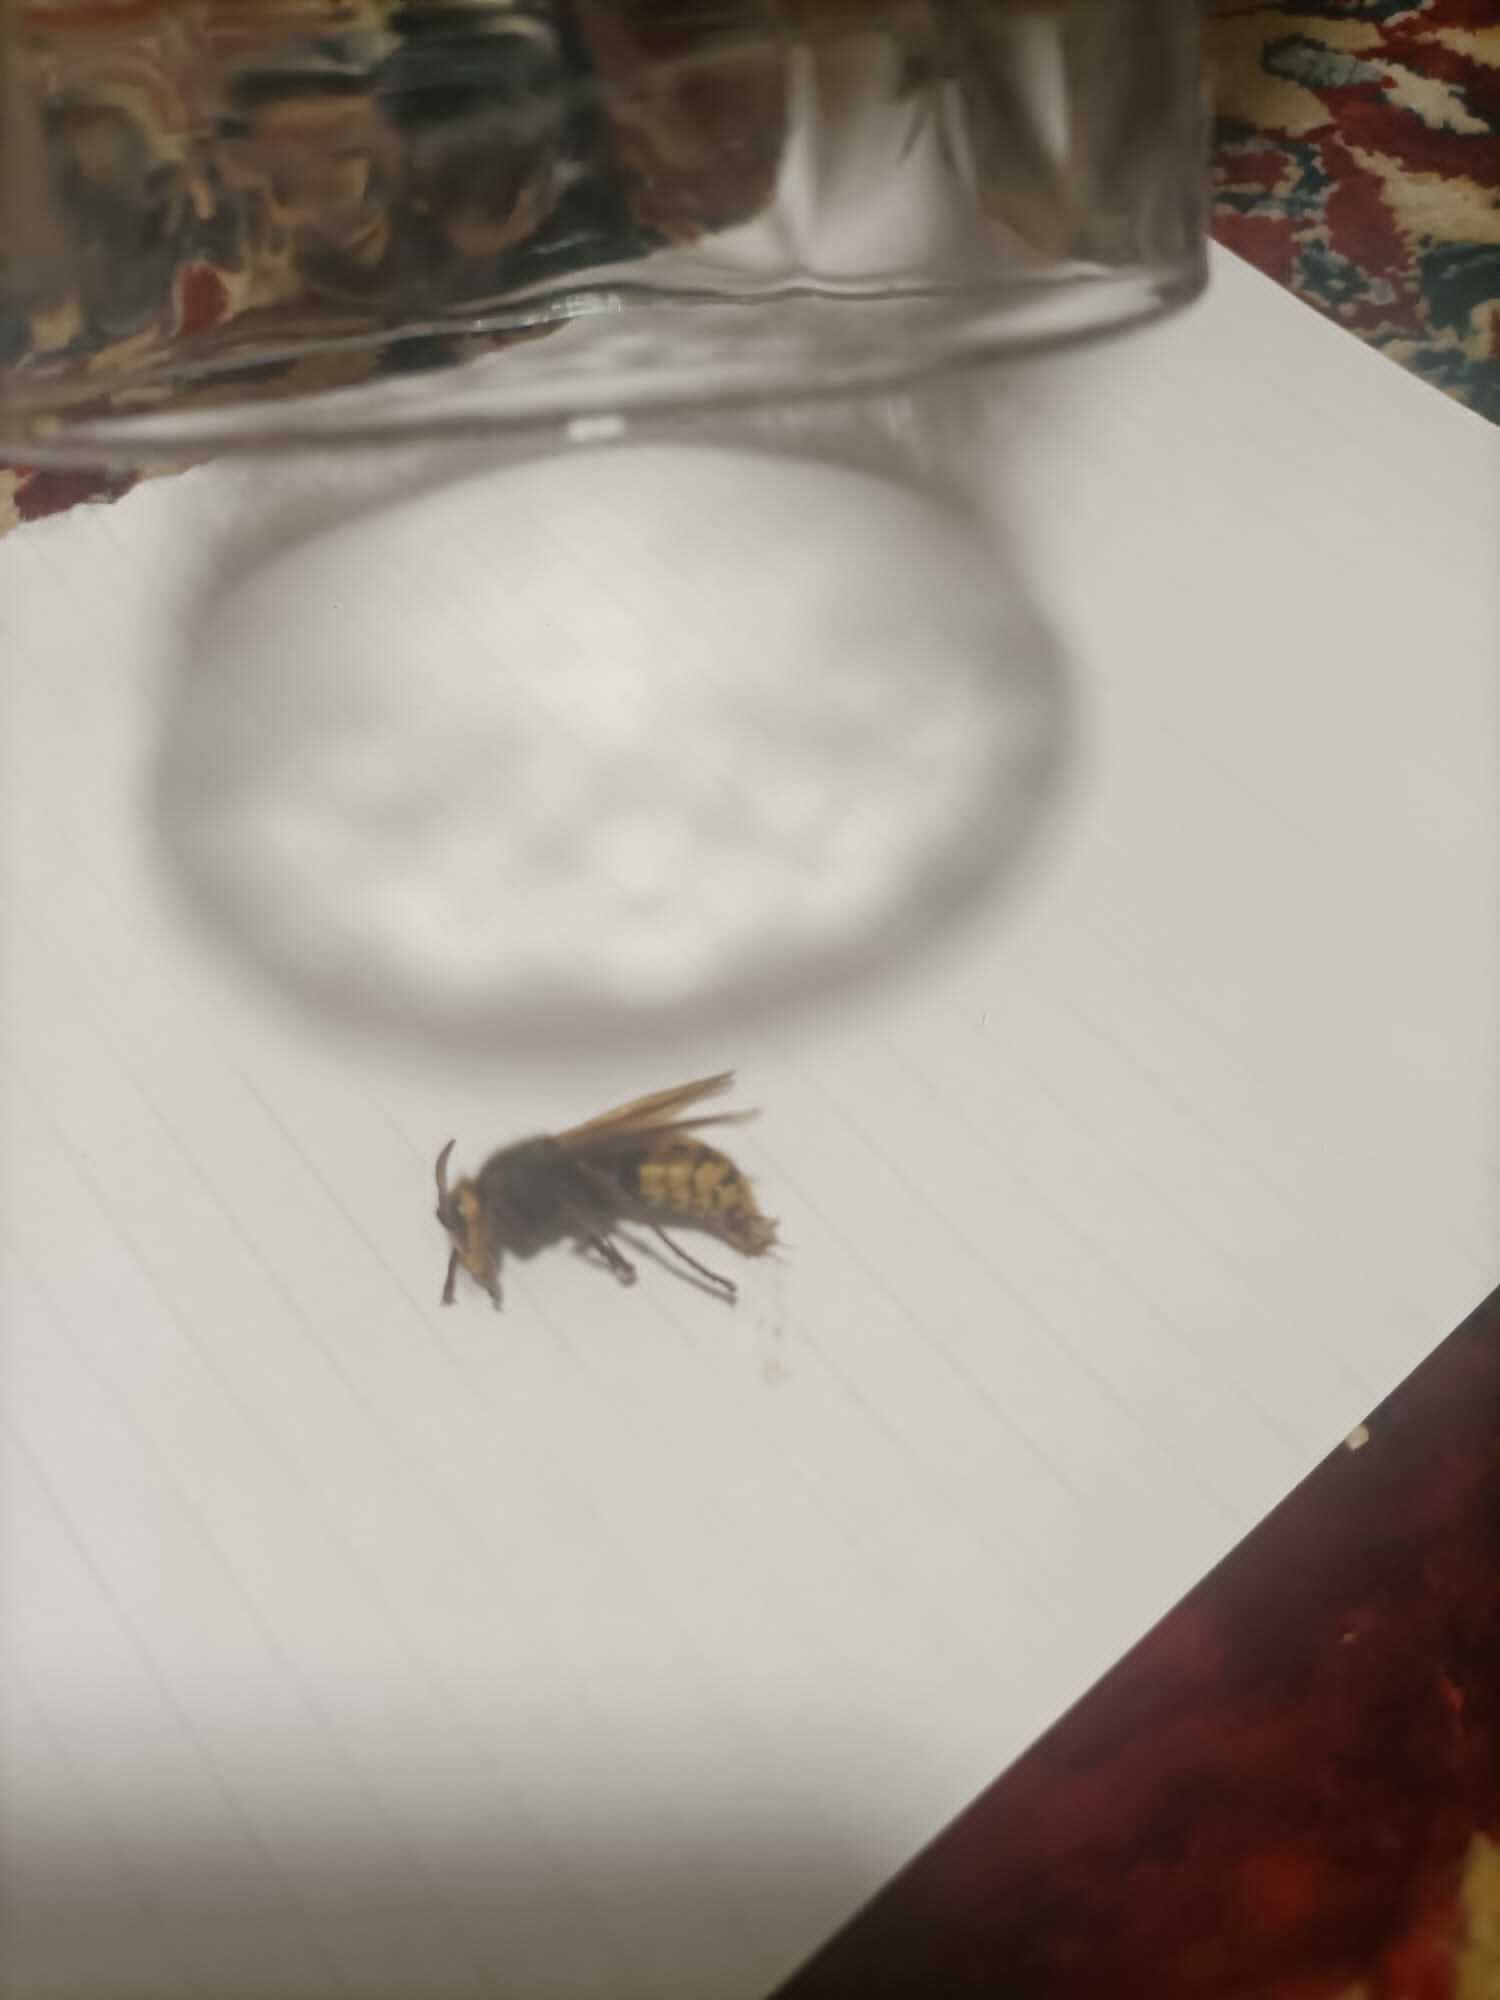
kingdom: Animalia
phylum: Arthropoda
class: Insecta
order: Hymenoptera
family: Vespidae
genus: Vespa
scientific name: Vespa crabro
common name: Hornet
